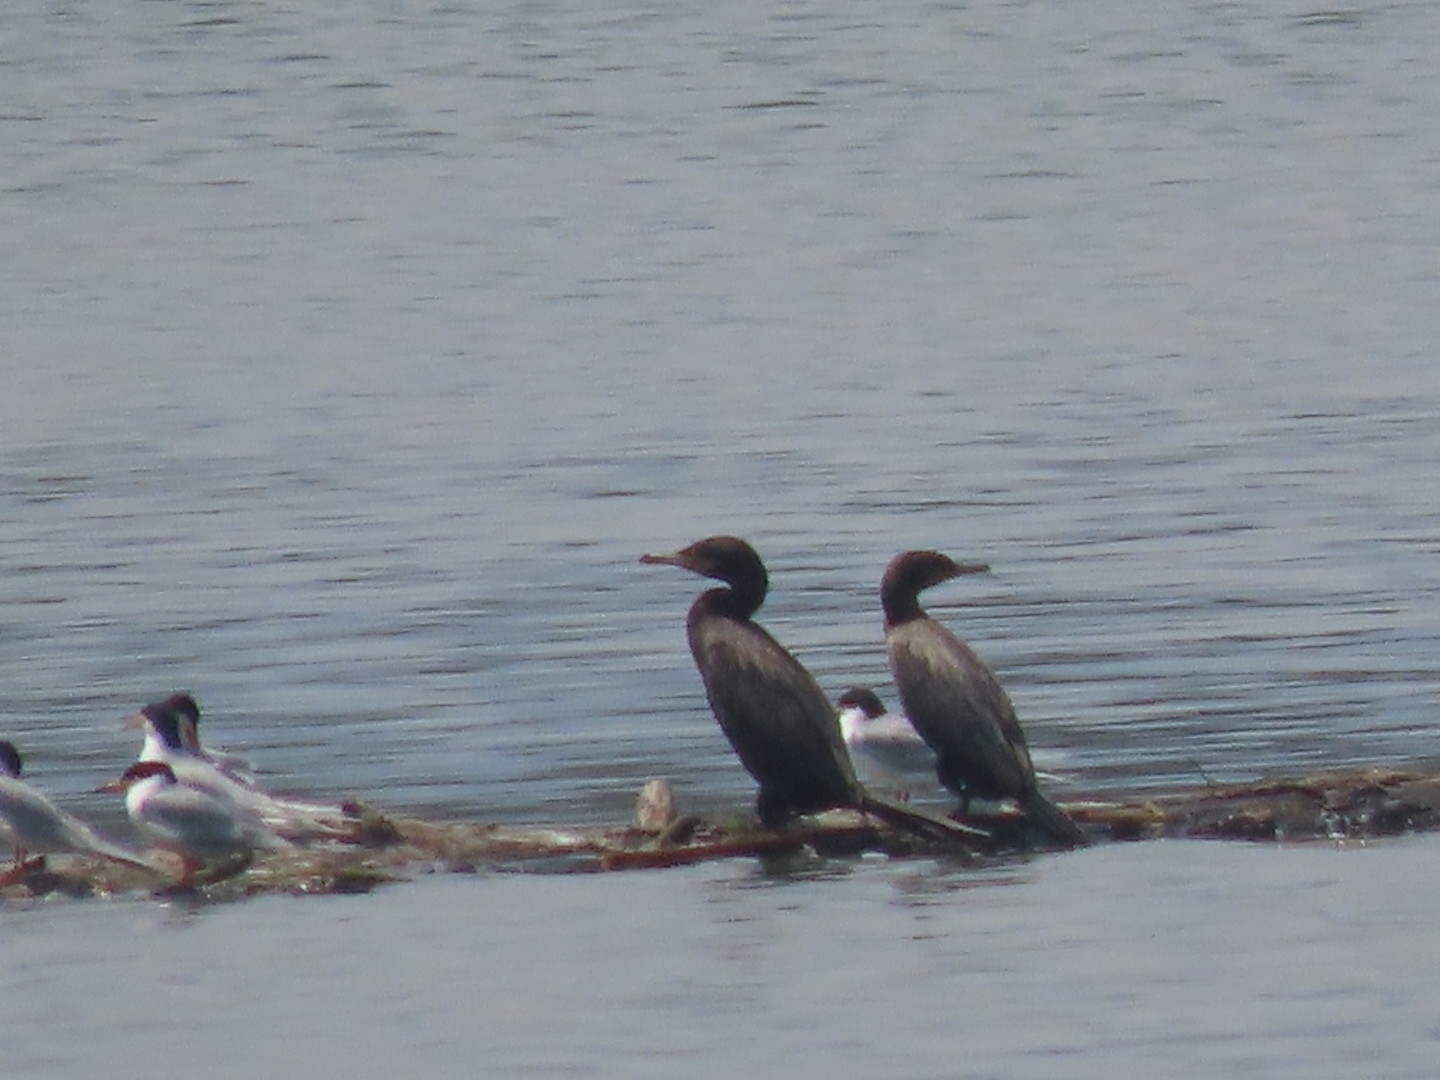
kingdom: Animalia
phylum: Chordata
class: Aves
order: Suliformes
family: Phalacrocoracidae
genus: Phalacrocorax
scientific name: Phalacrocorax brasilianus
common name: Neotropic cormorant
